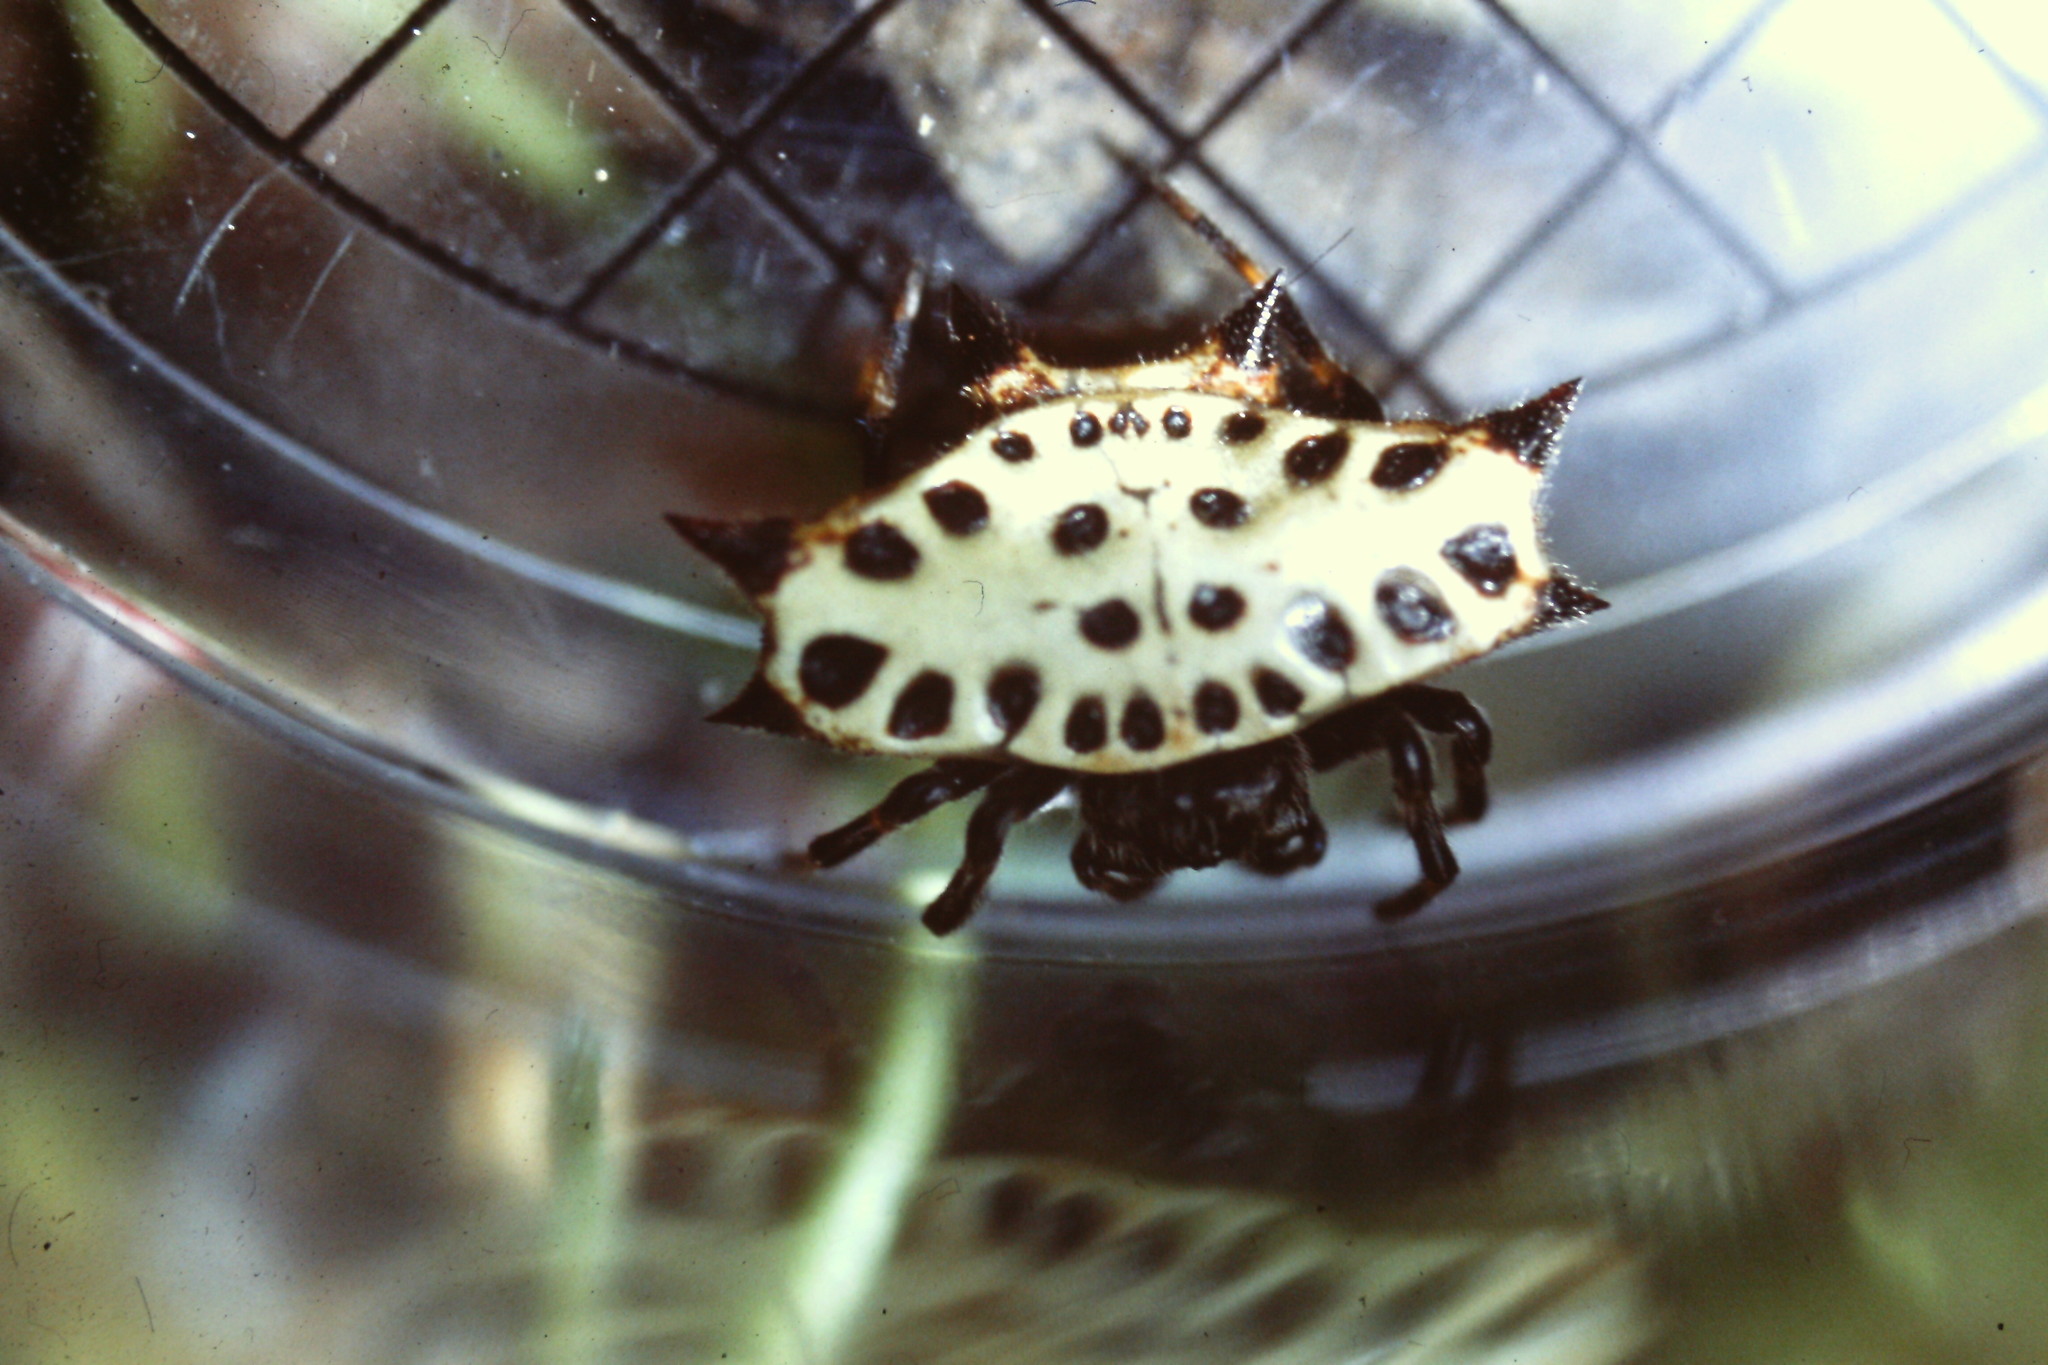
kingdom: Animalia
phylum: Arthropoda
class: Arachnida
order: Araneae
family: Araneidae
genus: Gasteracantha
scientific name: Gasteracantha cancriformis
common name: Orb weavers
